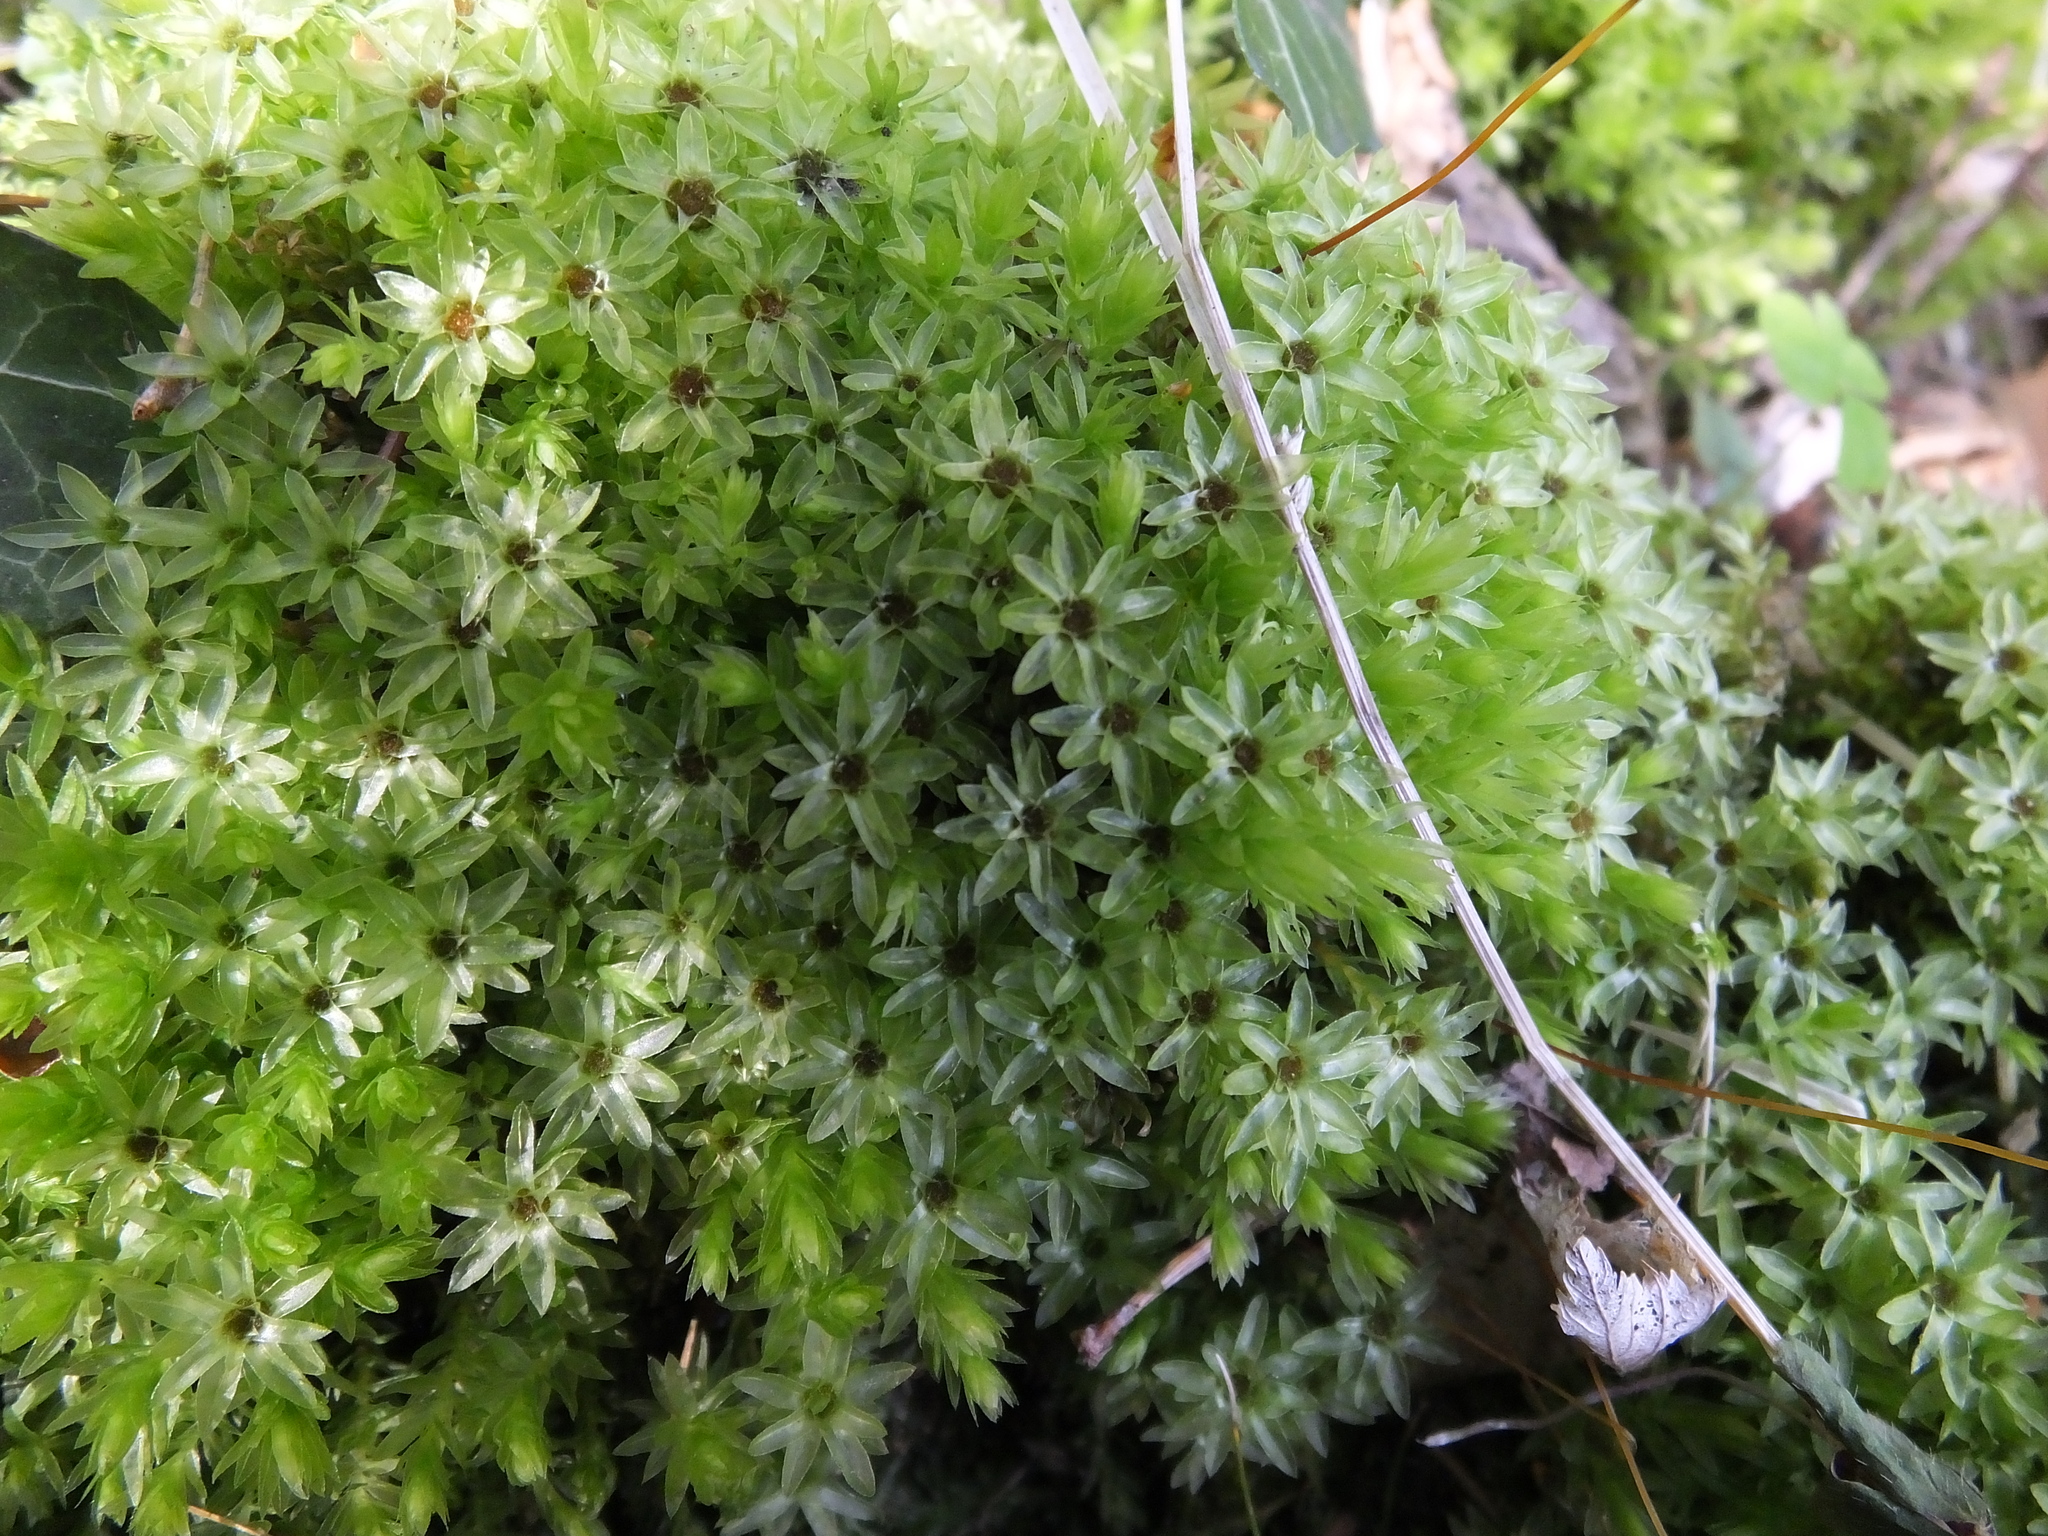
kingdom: Plantae
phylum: Bryophyta
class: Bryopsida
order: Bryales
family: Mniaceae
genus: Mnium
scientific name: Mnium hornum
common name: Swan's-neck leafy moss
